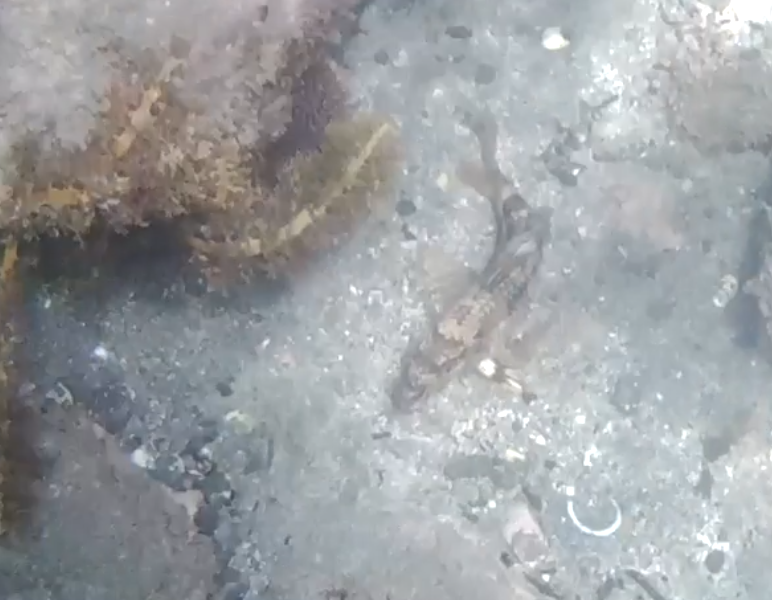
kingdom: Animalia
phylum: Chordata
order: Perciformes
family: Mullidae
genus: Upeneichthys
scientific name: Upeneichthys lineatus
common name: Red mullet
